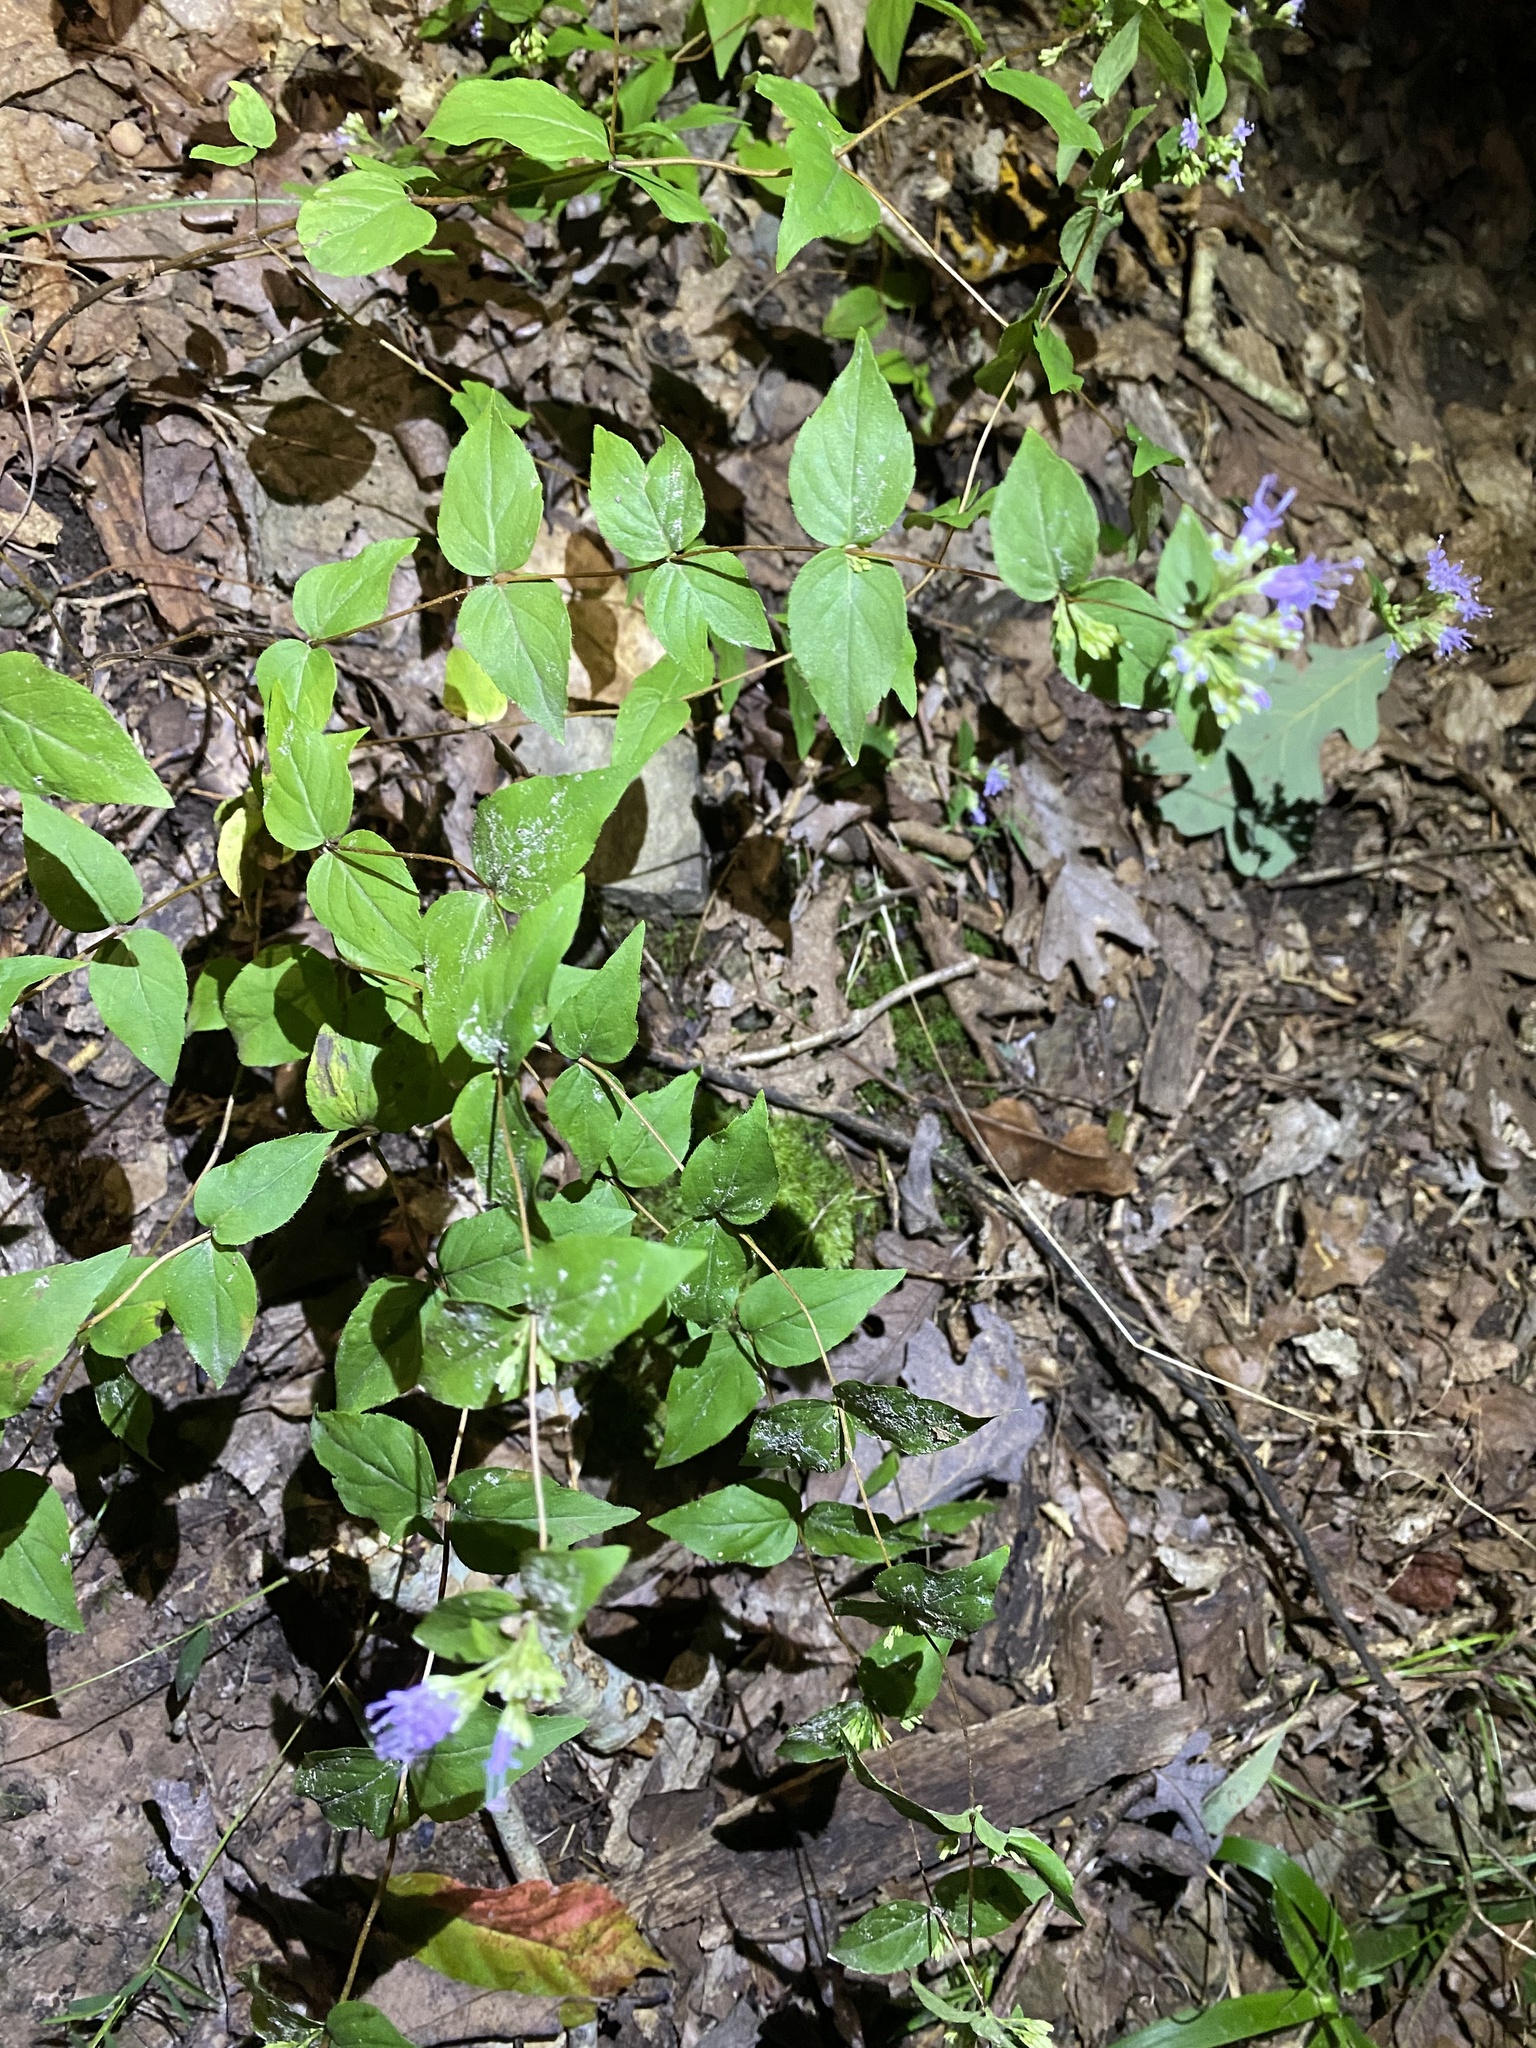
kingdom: Plantae
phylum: Tracheophyta
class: Magnoliopsida
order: Lamiales
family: Lamiaceae
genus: Cunila
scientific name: Cunila origanoides
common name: American dittany
